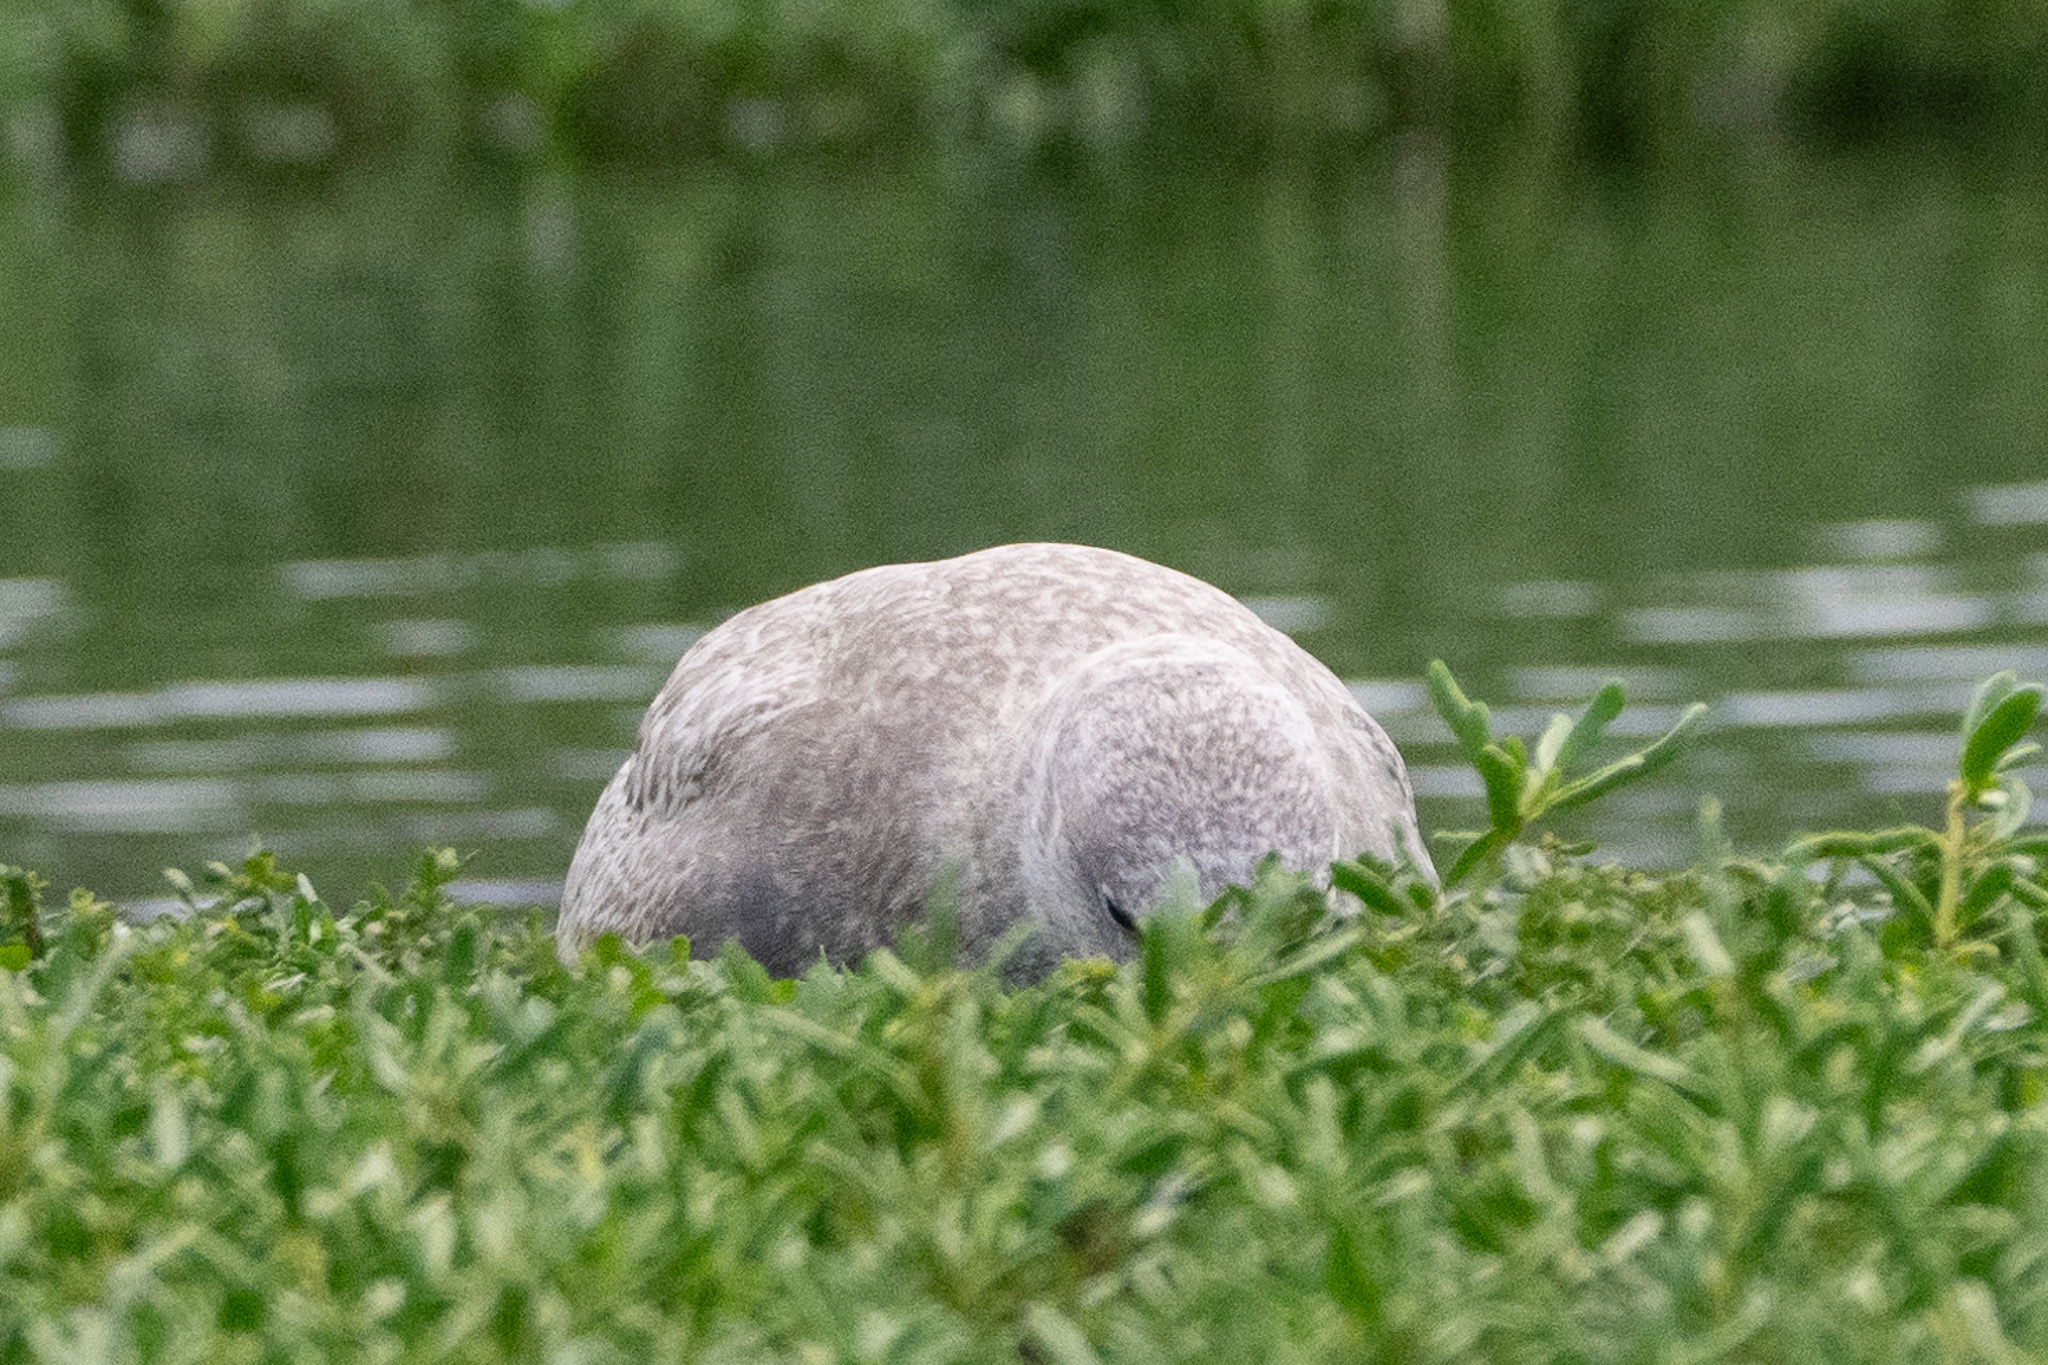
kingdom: Animalia
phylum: Chordata
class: Aves
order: Charadriiformes
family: Laridae
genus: Larus
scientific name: Larus
